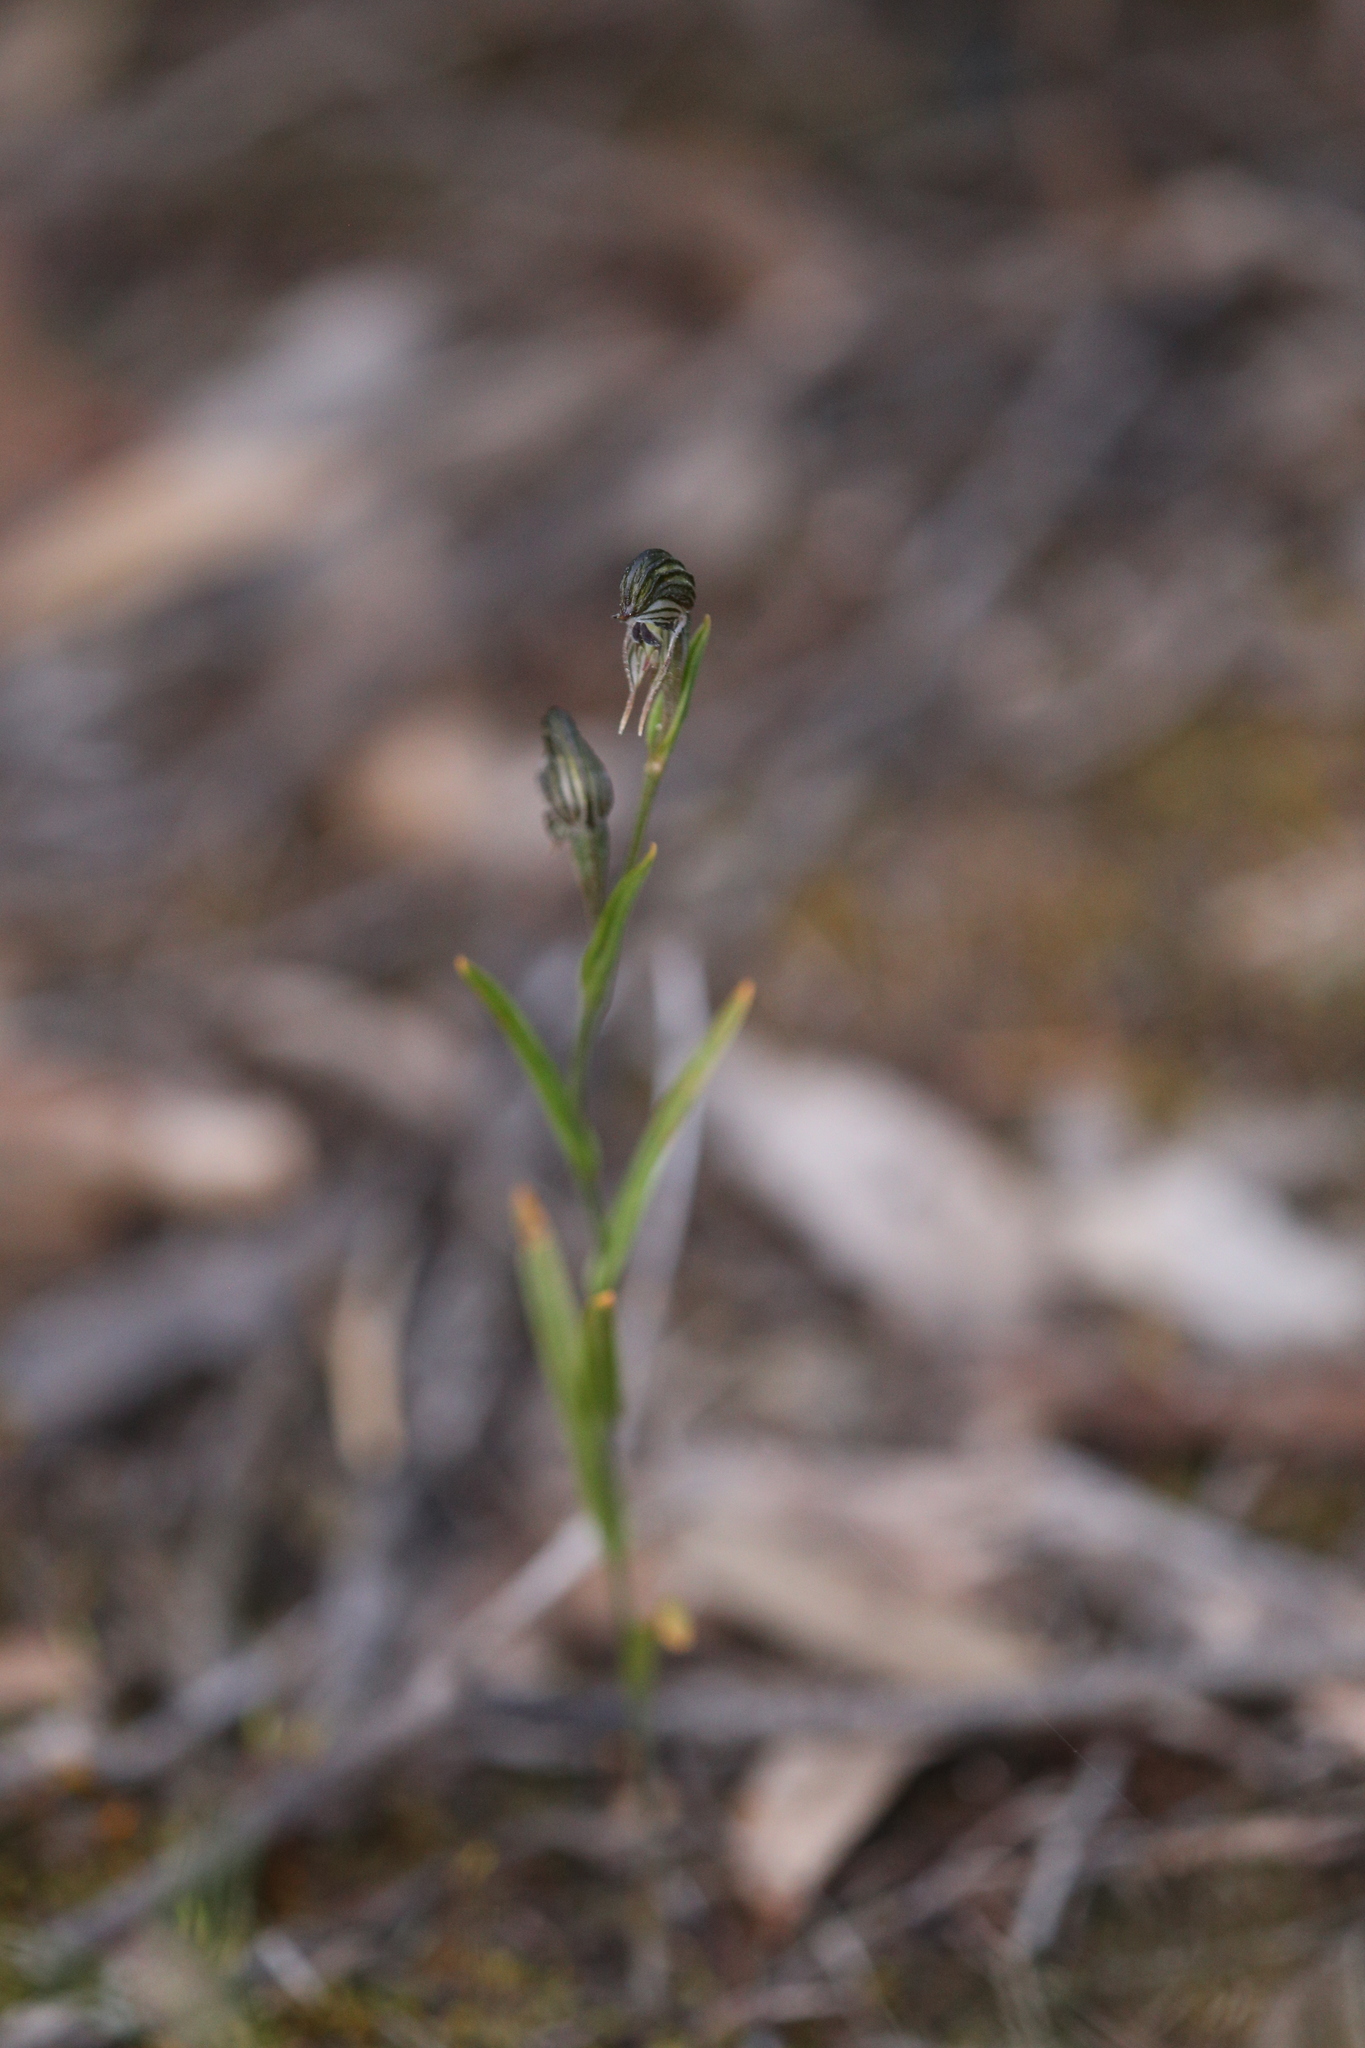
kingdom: Plantae
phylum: Tracheophyta
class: Liliopsida
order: Asparagales
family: Orchidaceae
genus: Pterostylis
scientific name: Pterostylis
